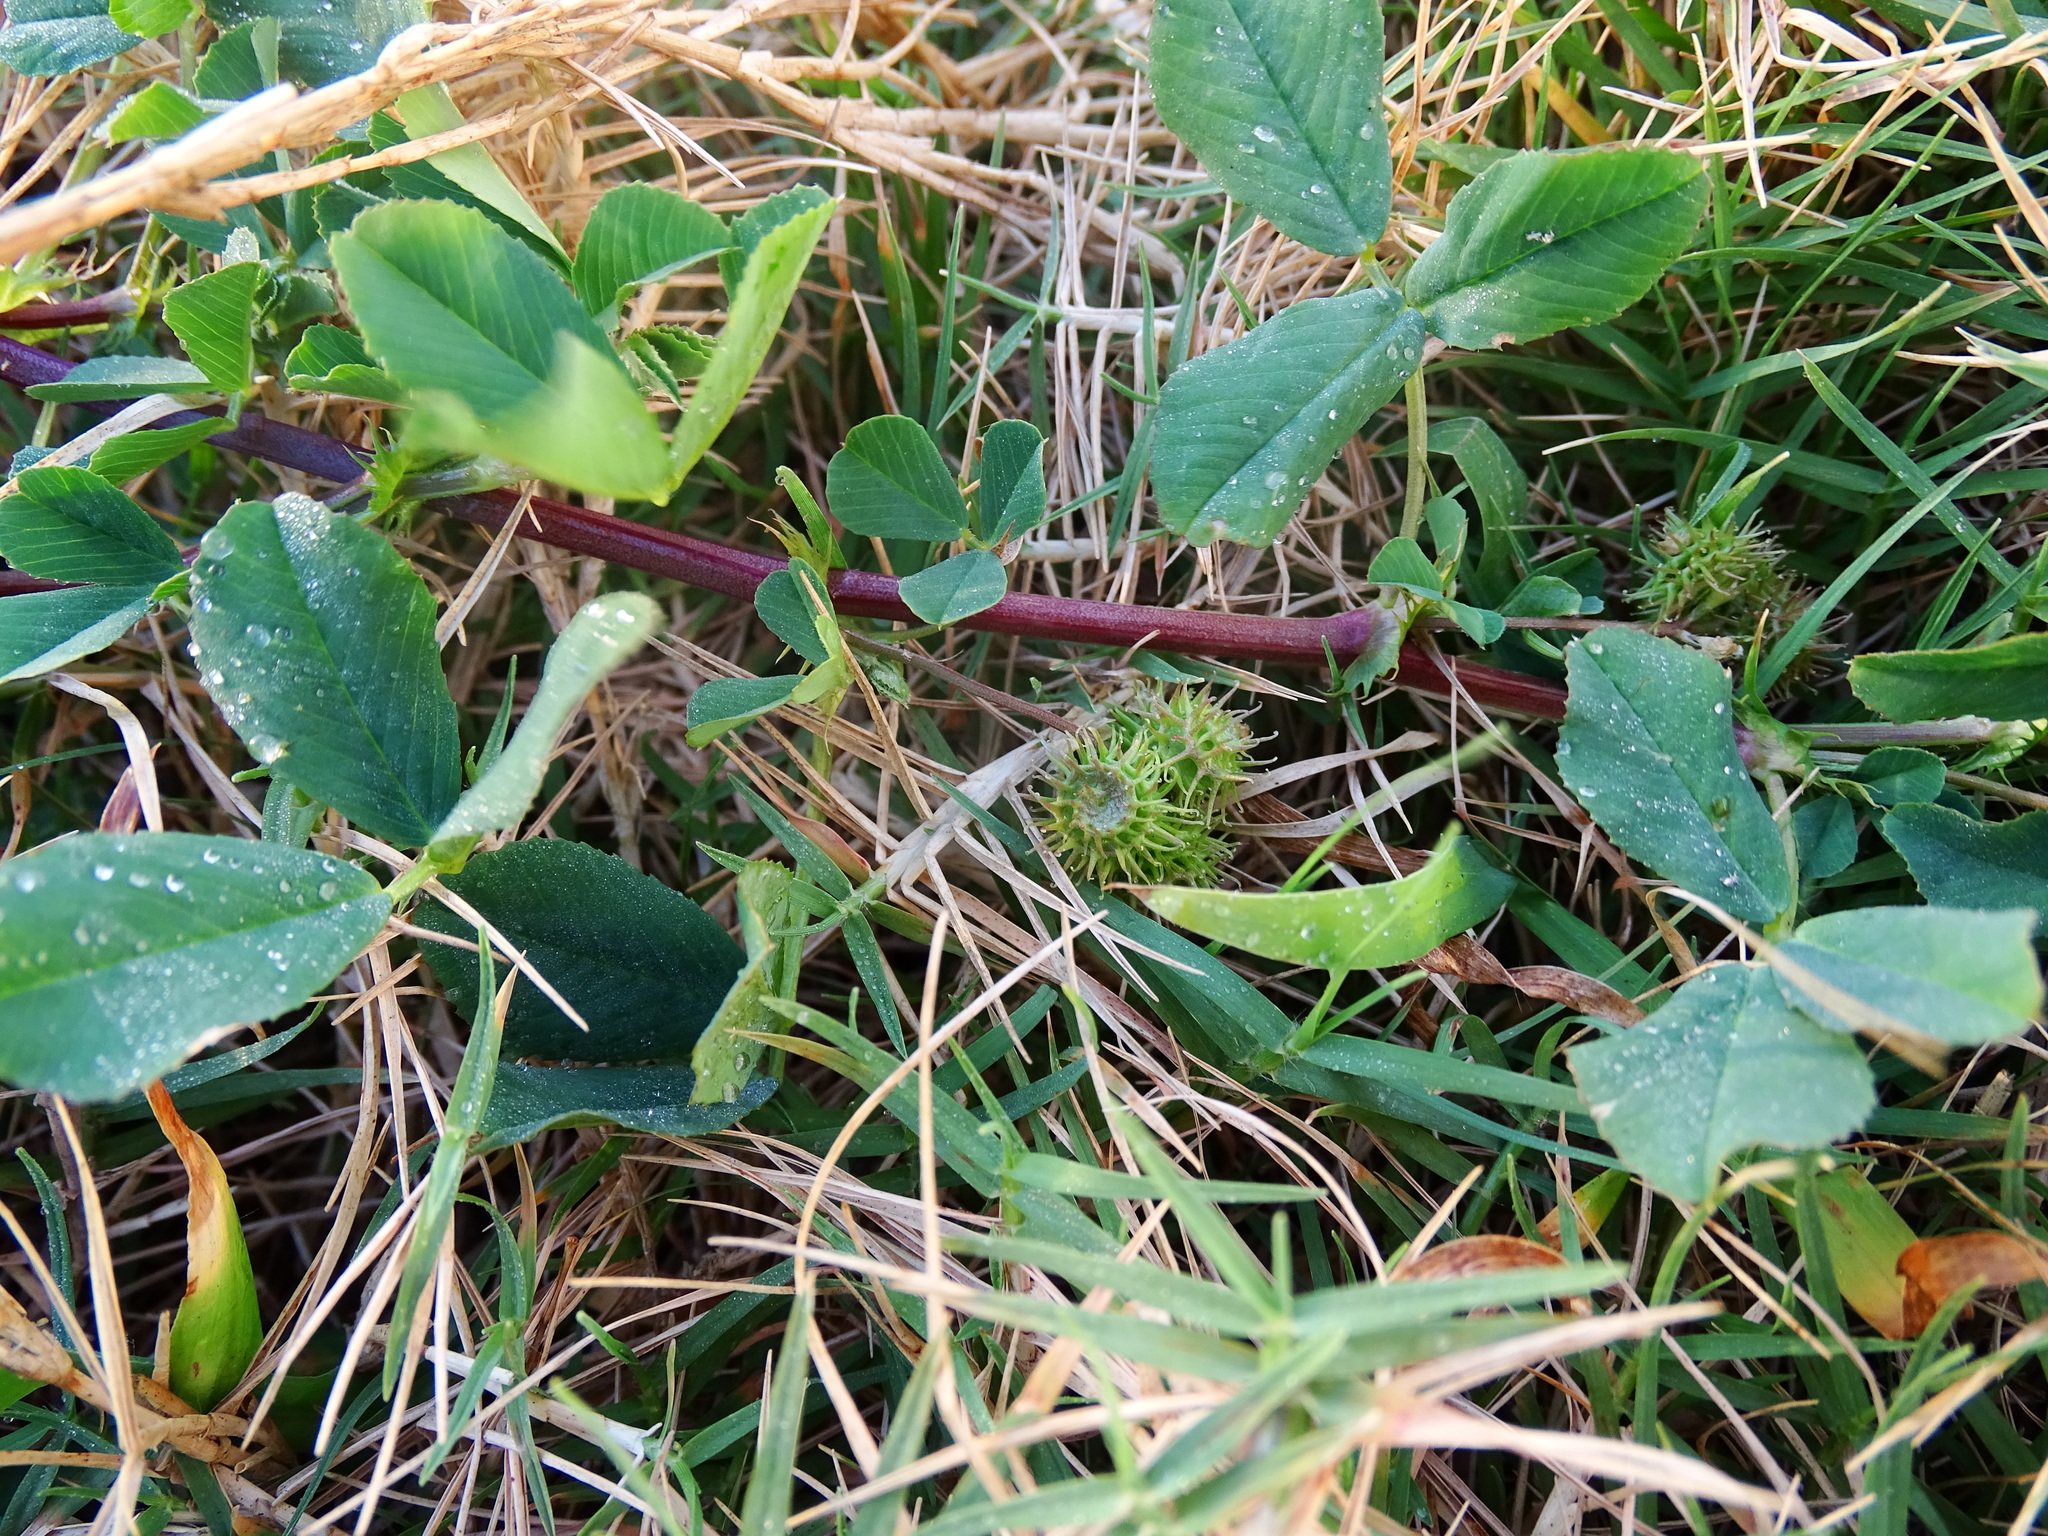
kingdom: Plantae
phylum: Tracheophyta
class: Magnoliopsida
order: Fabales
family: Fabaceae
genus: Medicago
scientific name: Medicago polymorpha
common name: Burclover
